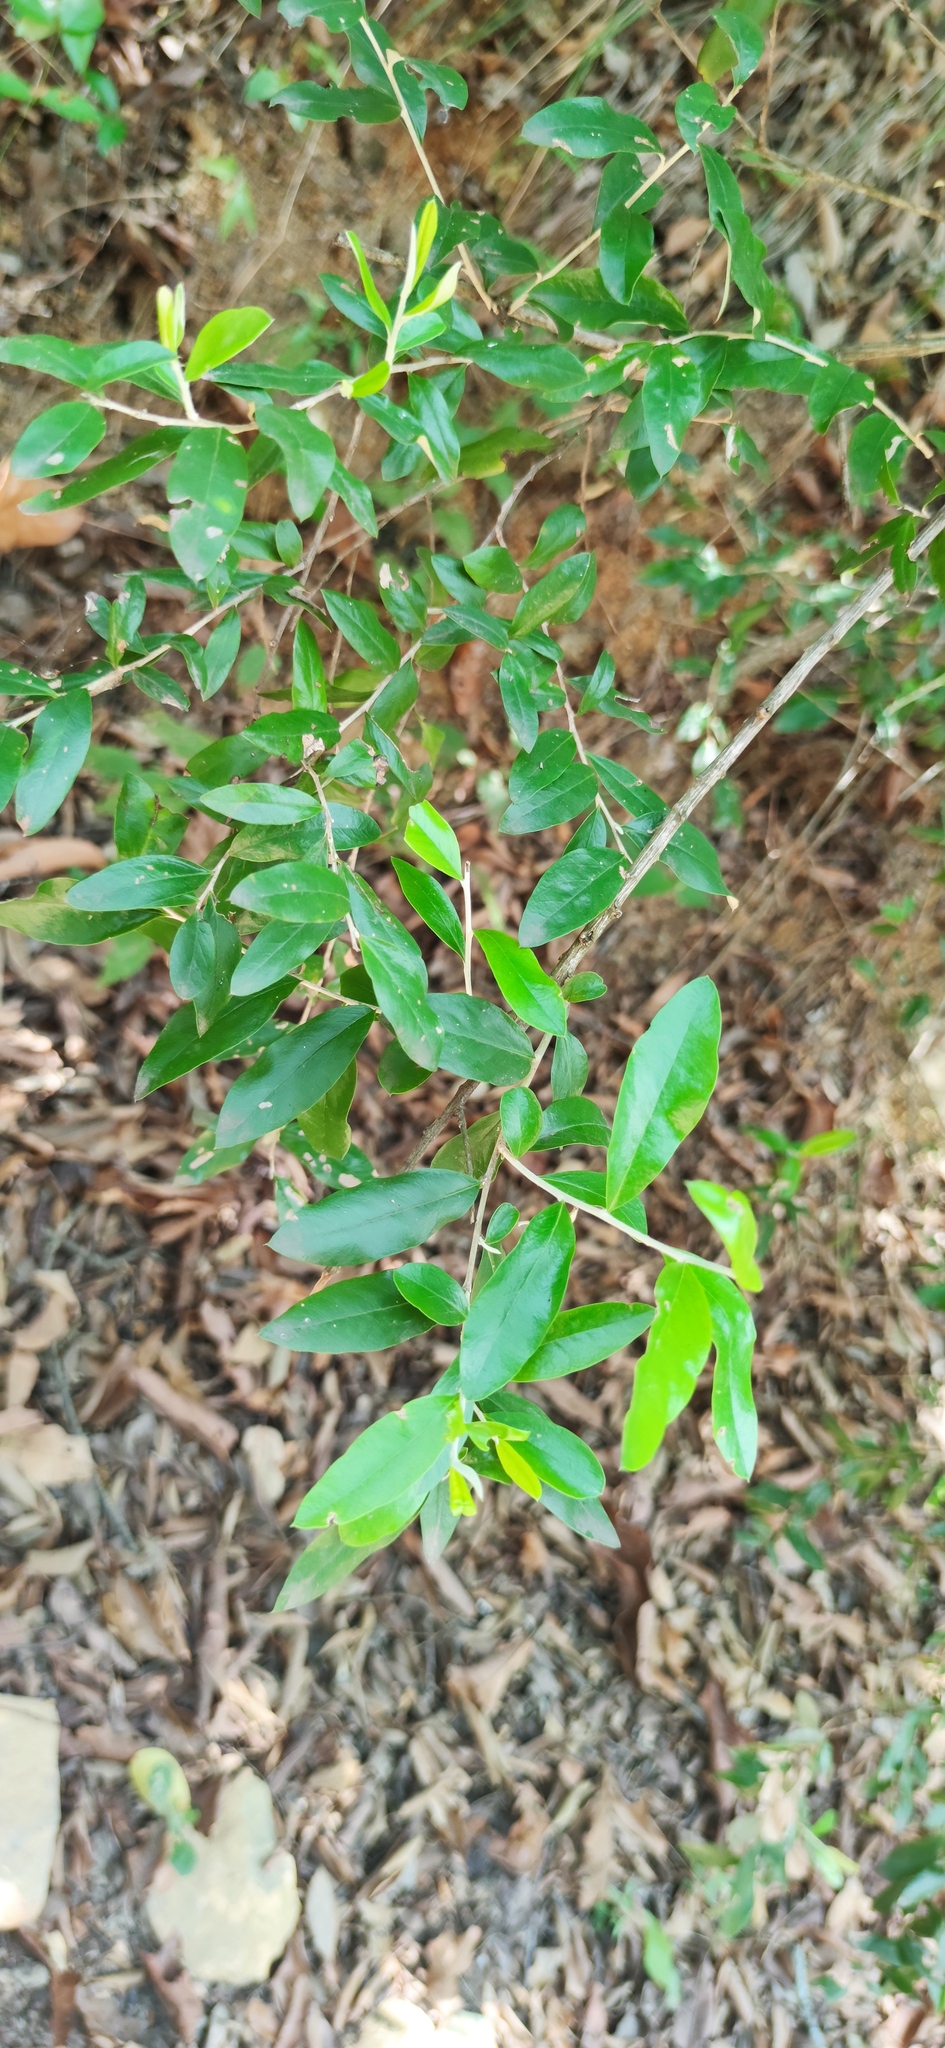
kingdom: Plantae
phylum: Tracheophyta
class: Magnoliopsida
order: Asterales
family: Asteraceae
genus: Nahuatlea
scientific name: Nahuatlea hypoleuca
